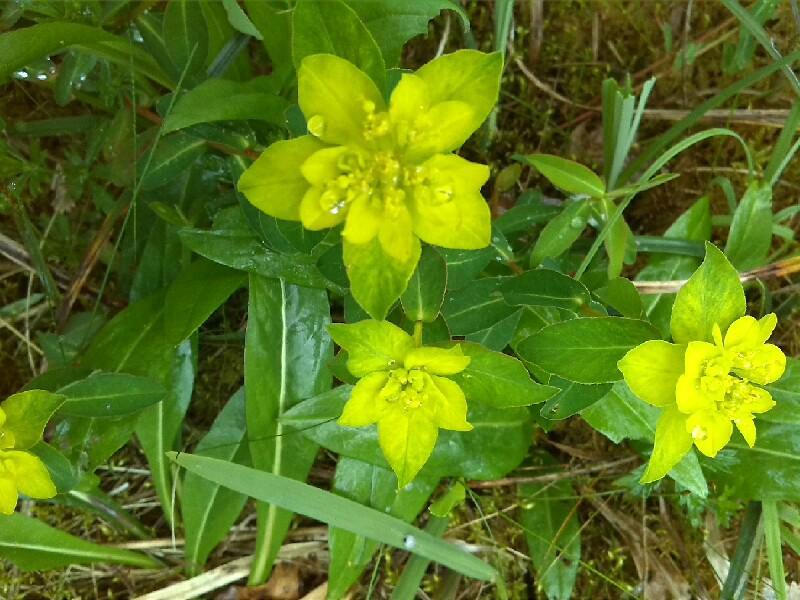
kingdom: Plantae
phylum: Tracheophyta
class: Magnoliopsida
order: Malpighiales
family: Euphorbiaceae
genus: Euphorbia
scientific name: Euphorbia verrucosa
